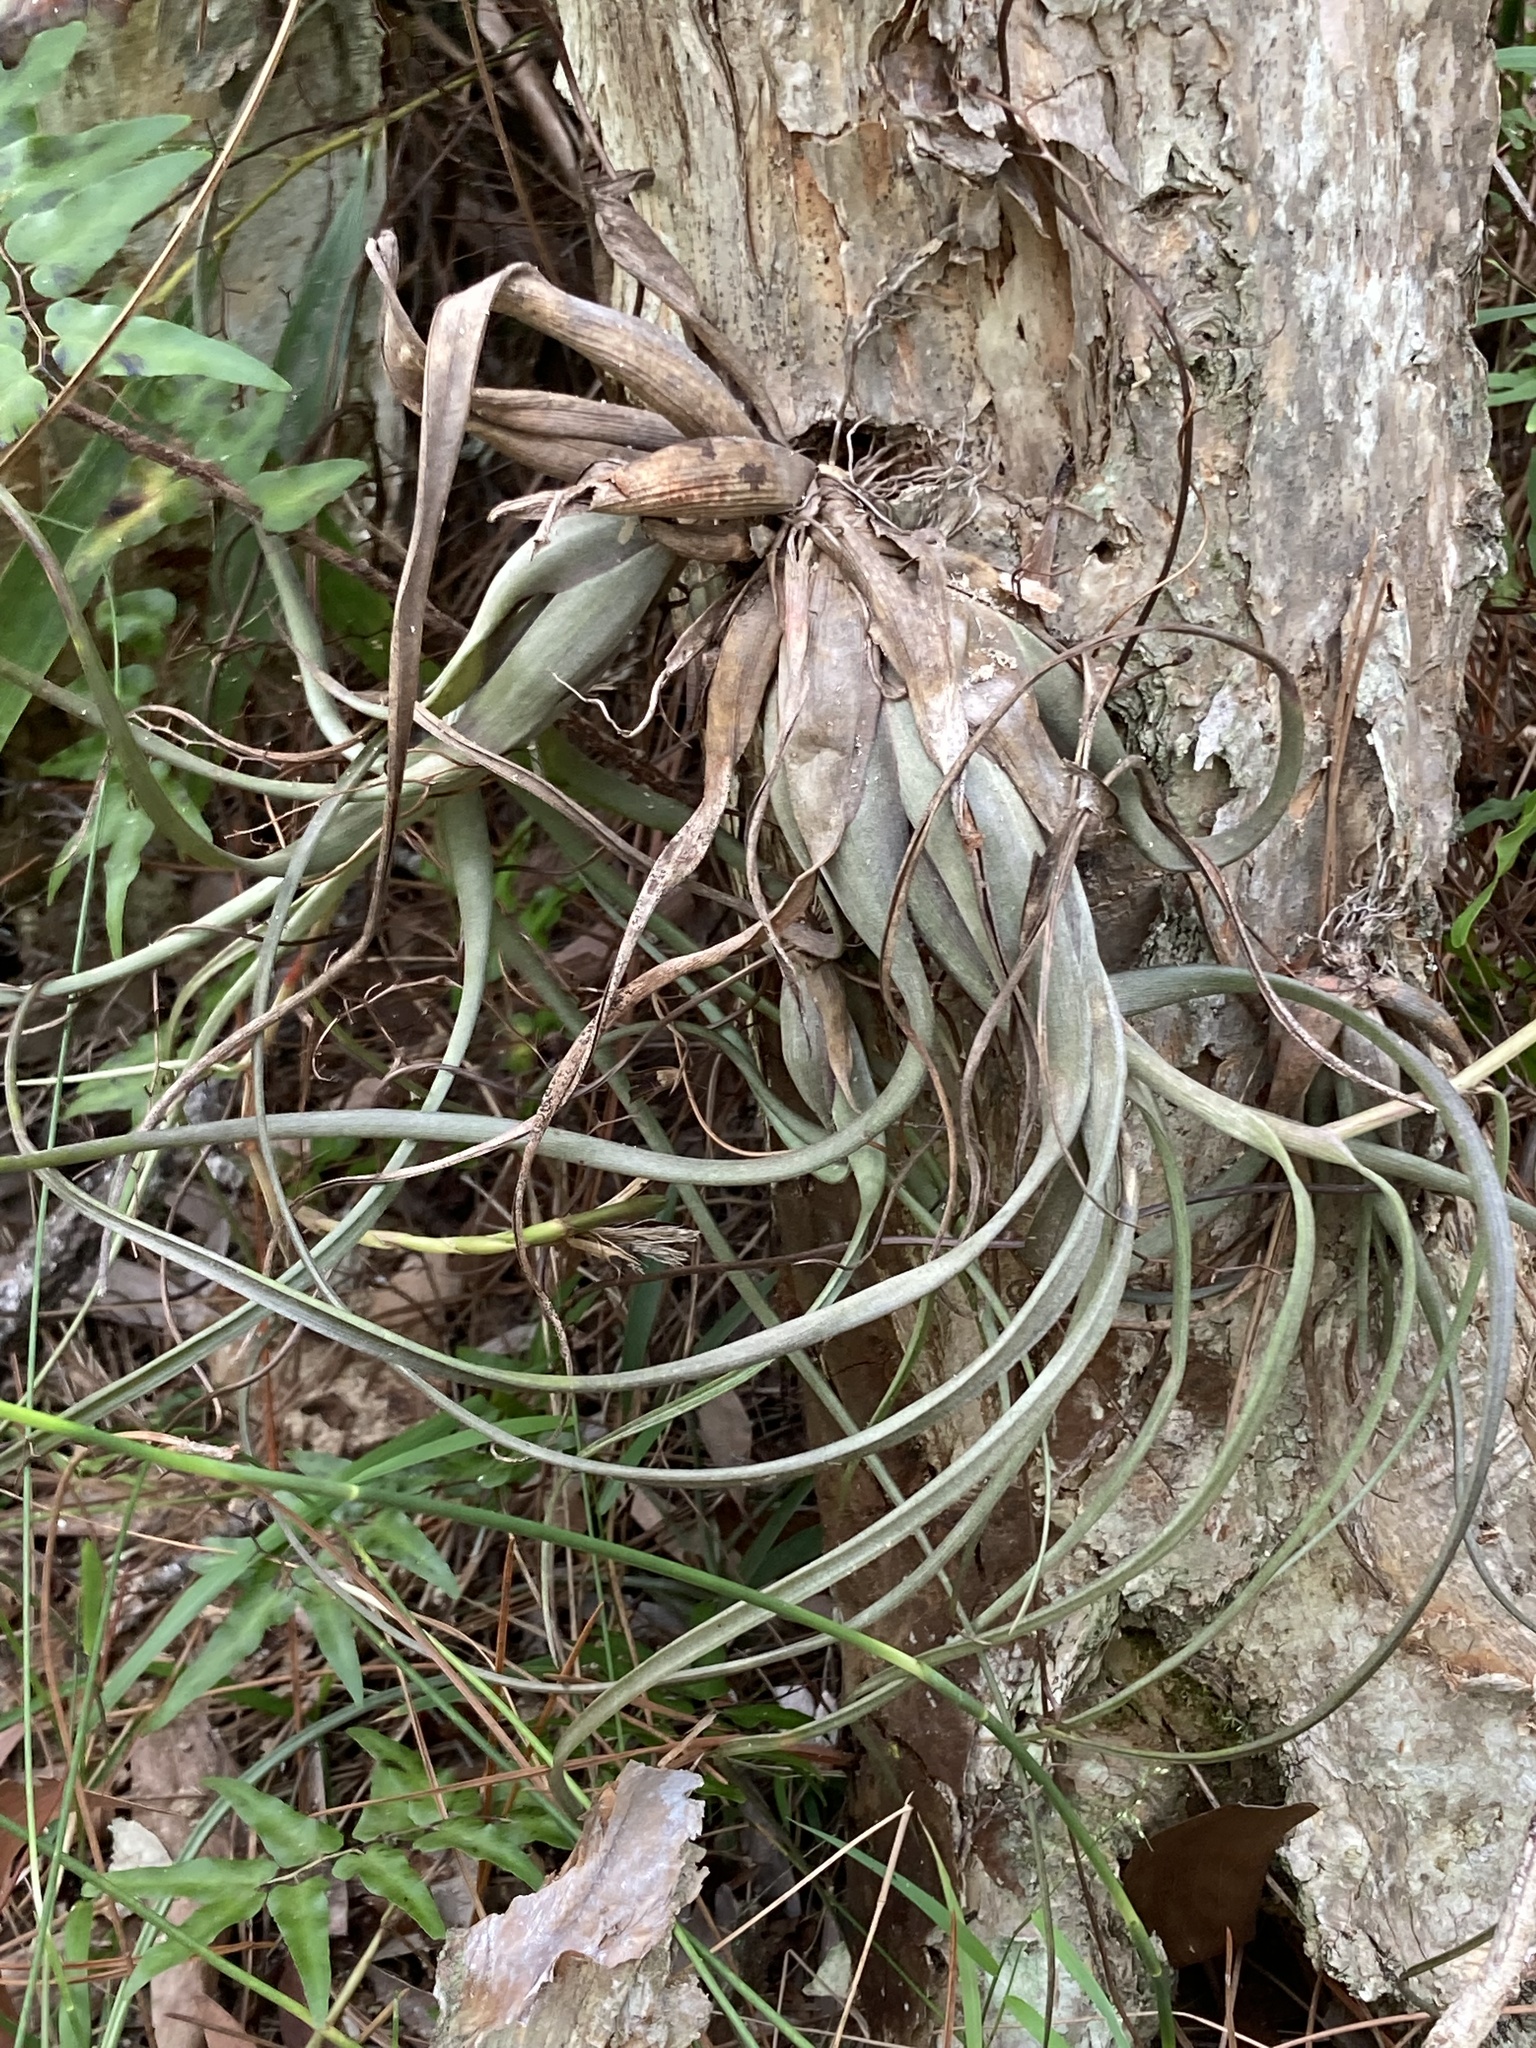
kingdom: Plantae
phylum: Tracheophyta
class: Liliopsida
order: Poales
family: Bromeliaceae
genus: Tillandsia
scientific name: Tillandsia balbisiana
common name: Northern needleleaf
